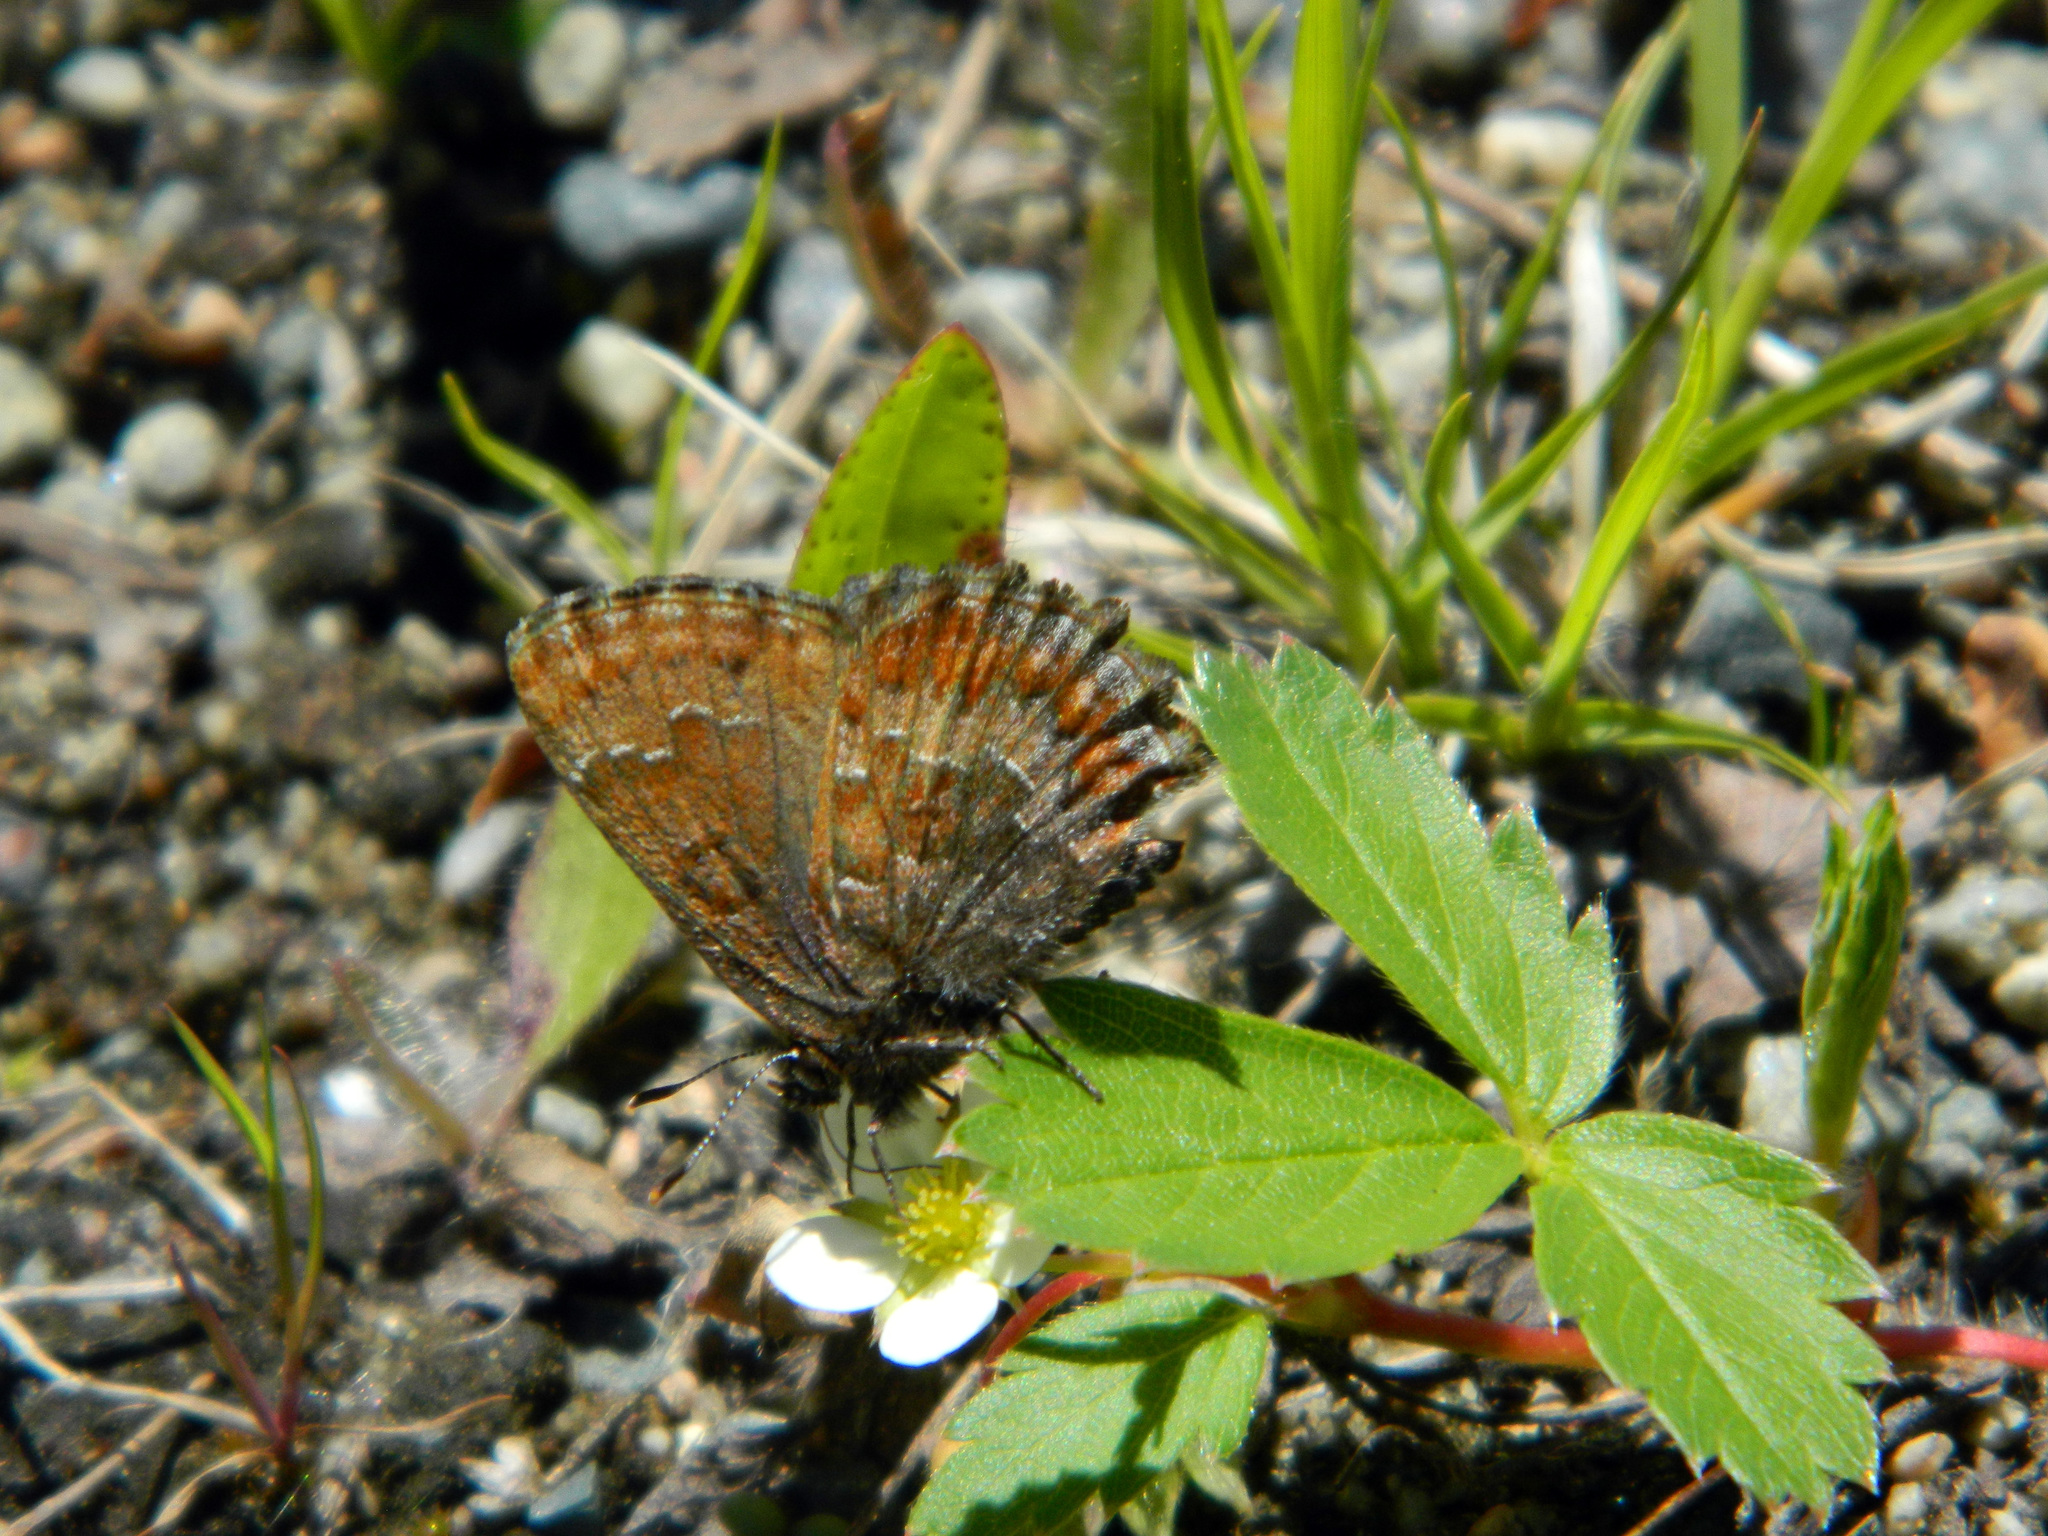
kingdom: Animalia
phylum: Arthropoda
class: Insecta
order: Lepidoptera
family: Lycaenidae
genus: Incisalia
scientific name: Incisalia niphon
